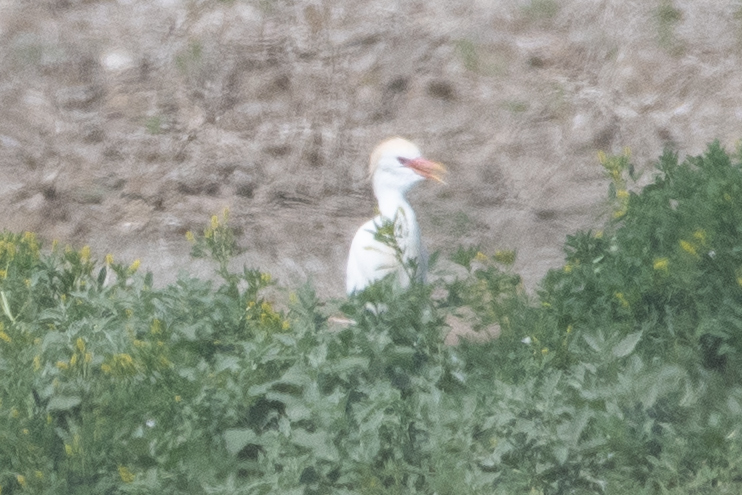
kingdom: Animalia
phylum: Chordata
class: Aves
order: Pelecaniformes
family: Ardeidae
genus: Bubulcus
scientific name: Bubulcus ibis
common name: Cattle egret
